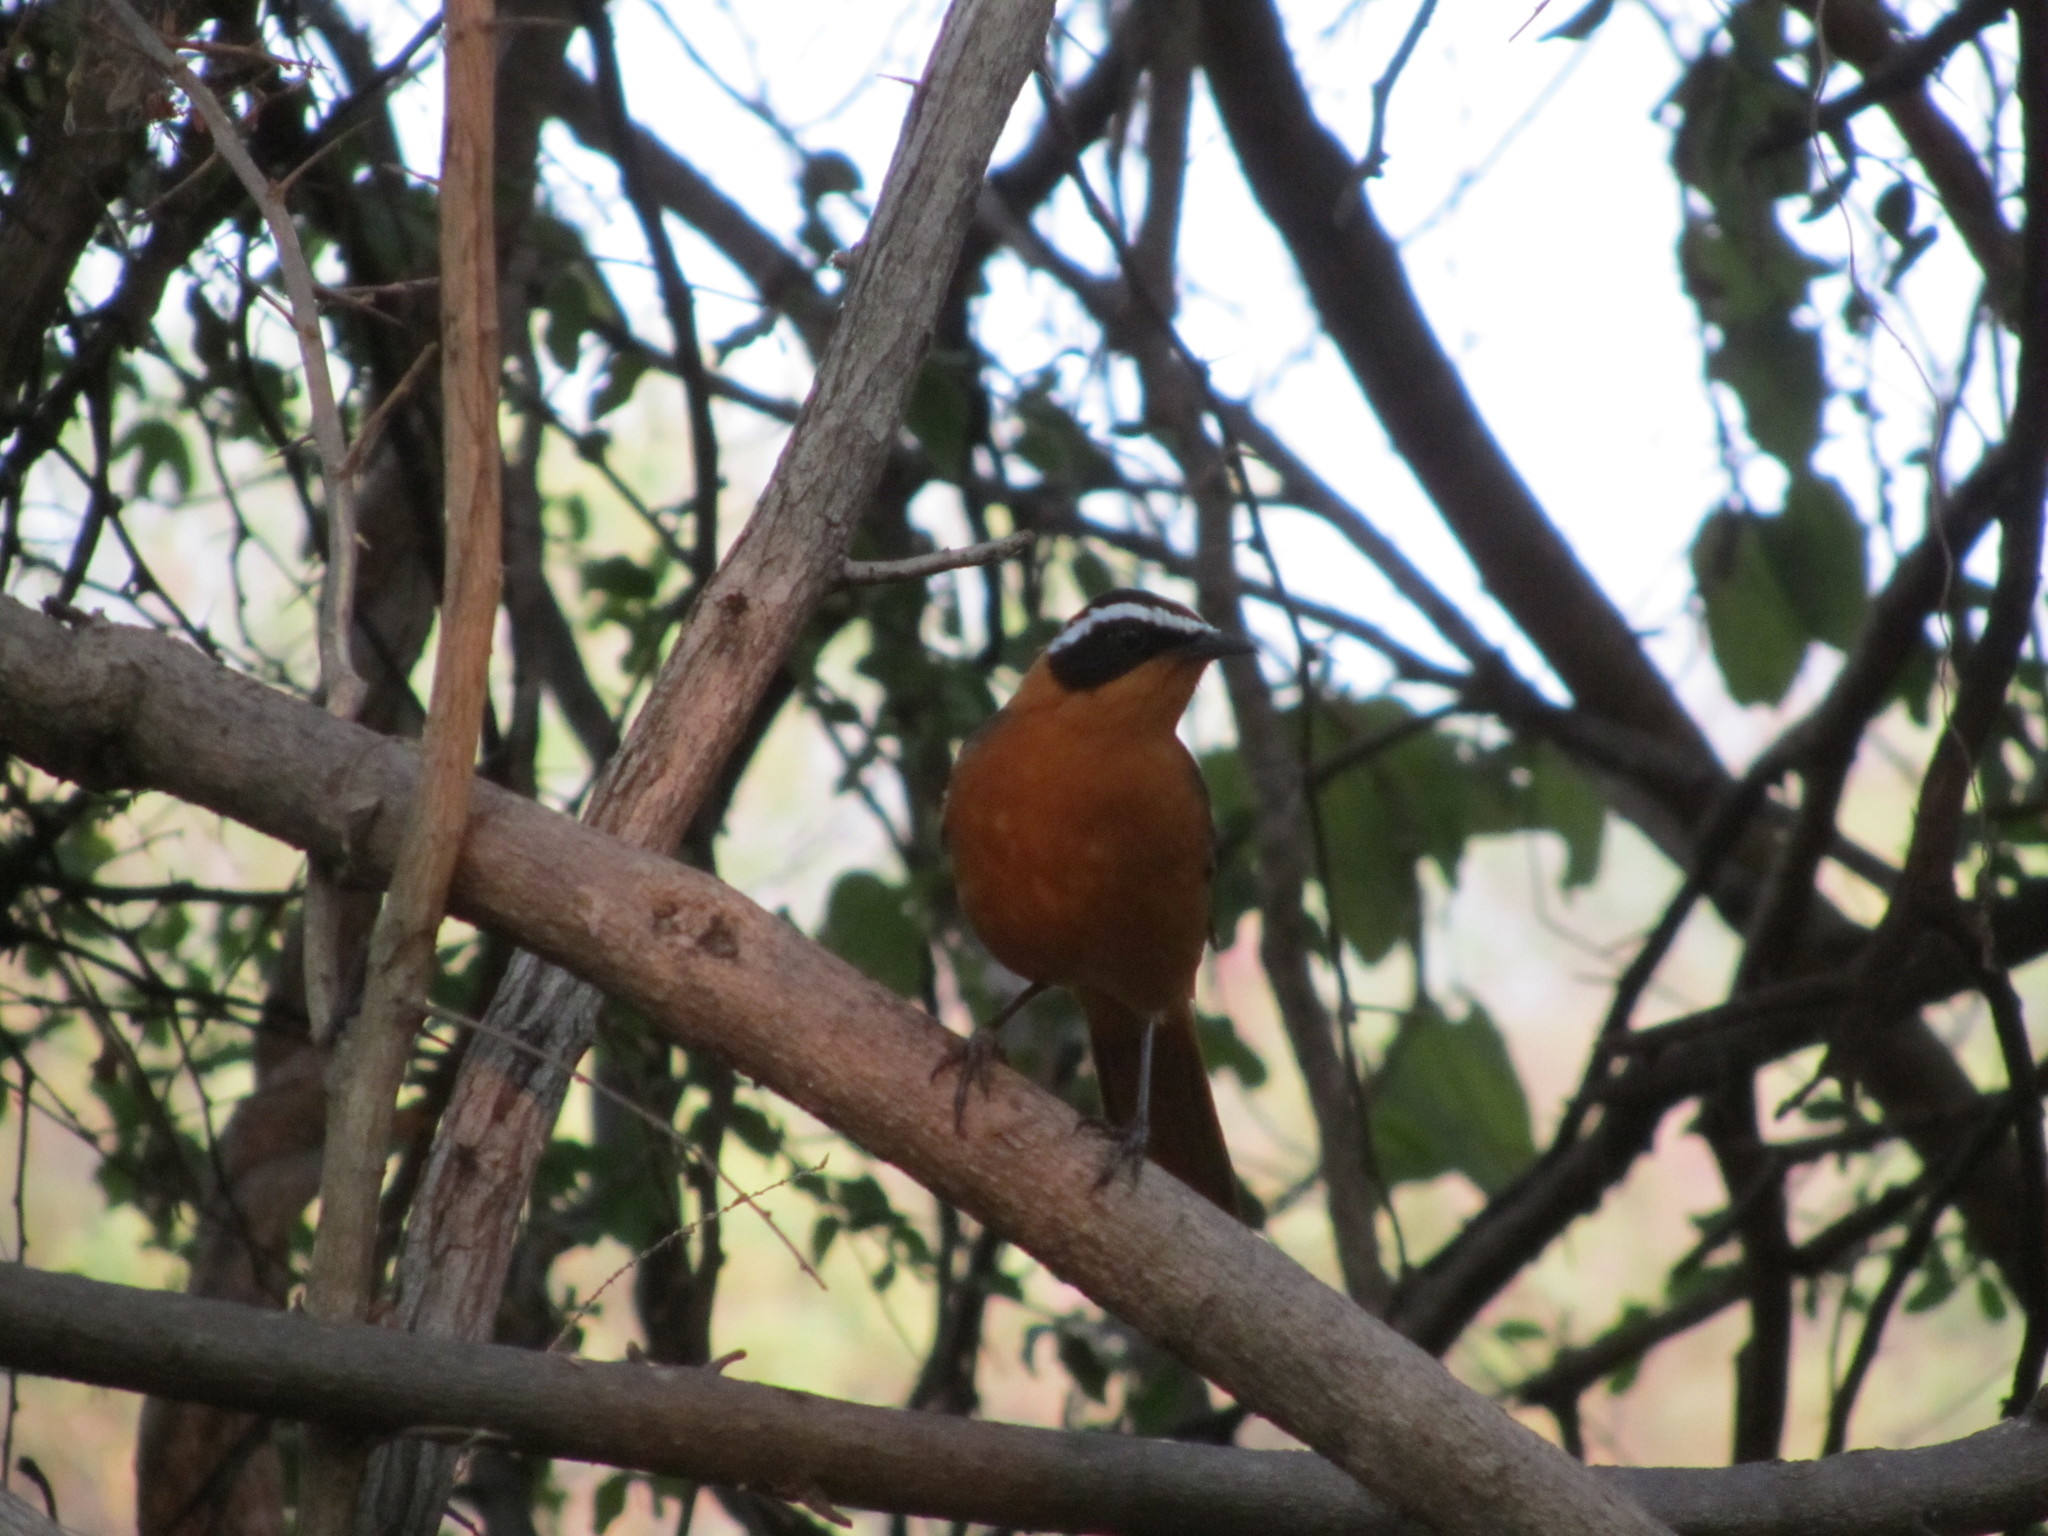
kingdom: Animalia
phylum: Chordata
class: Aves
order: Passeriformes
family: Muscicapidae
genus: Cossypha
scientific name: Cossypha heuglini
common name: White-browed robin-chat
